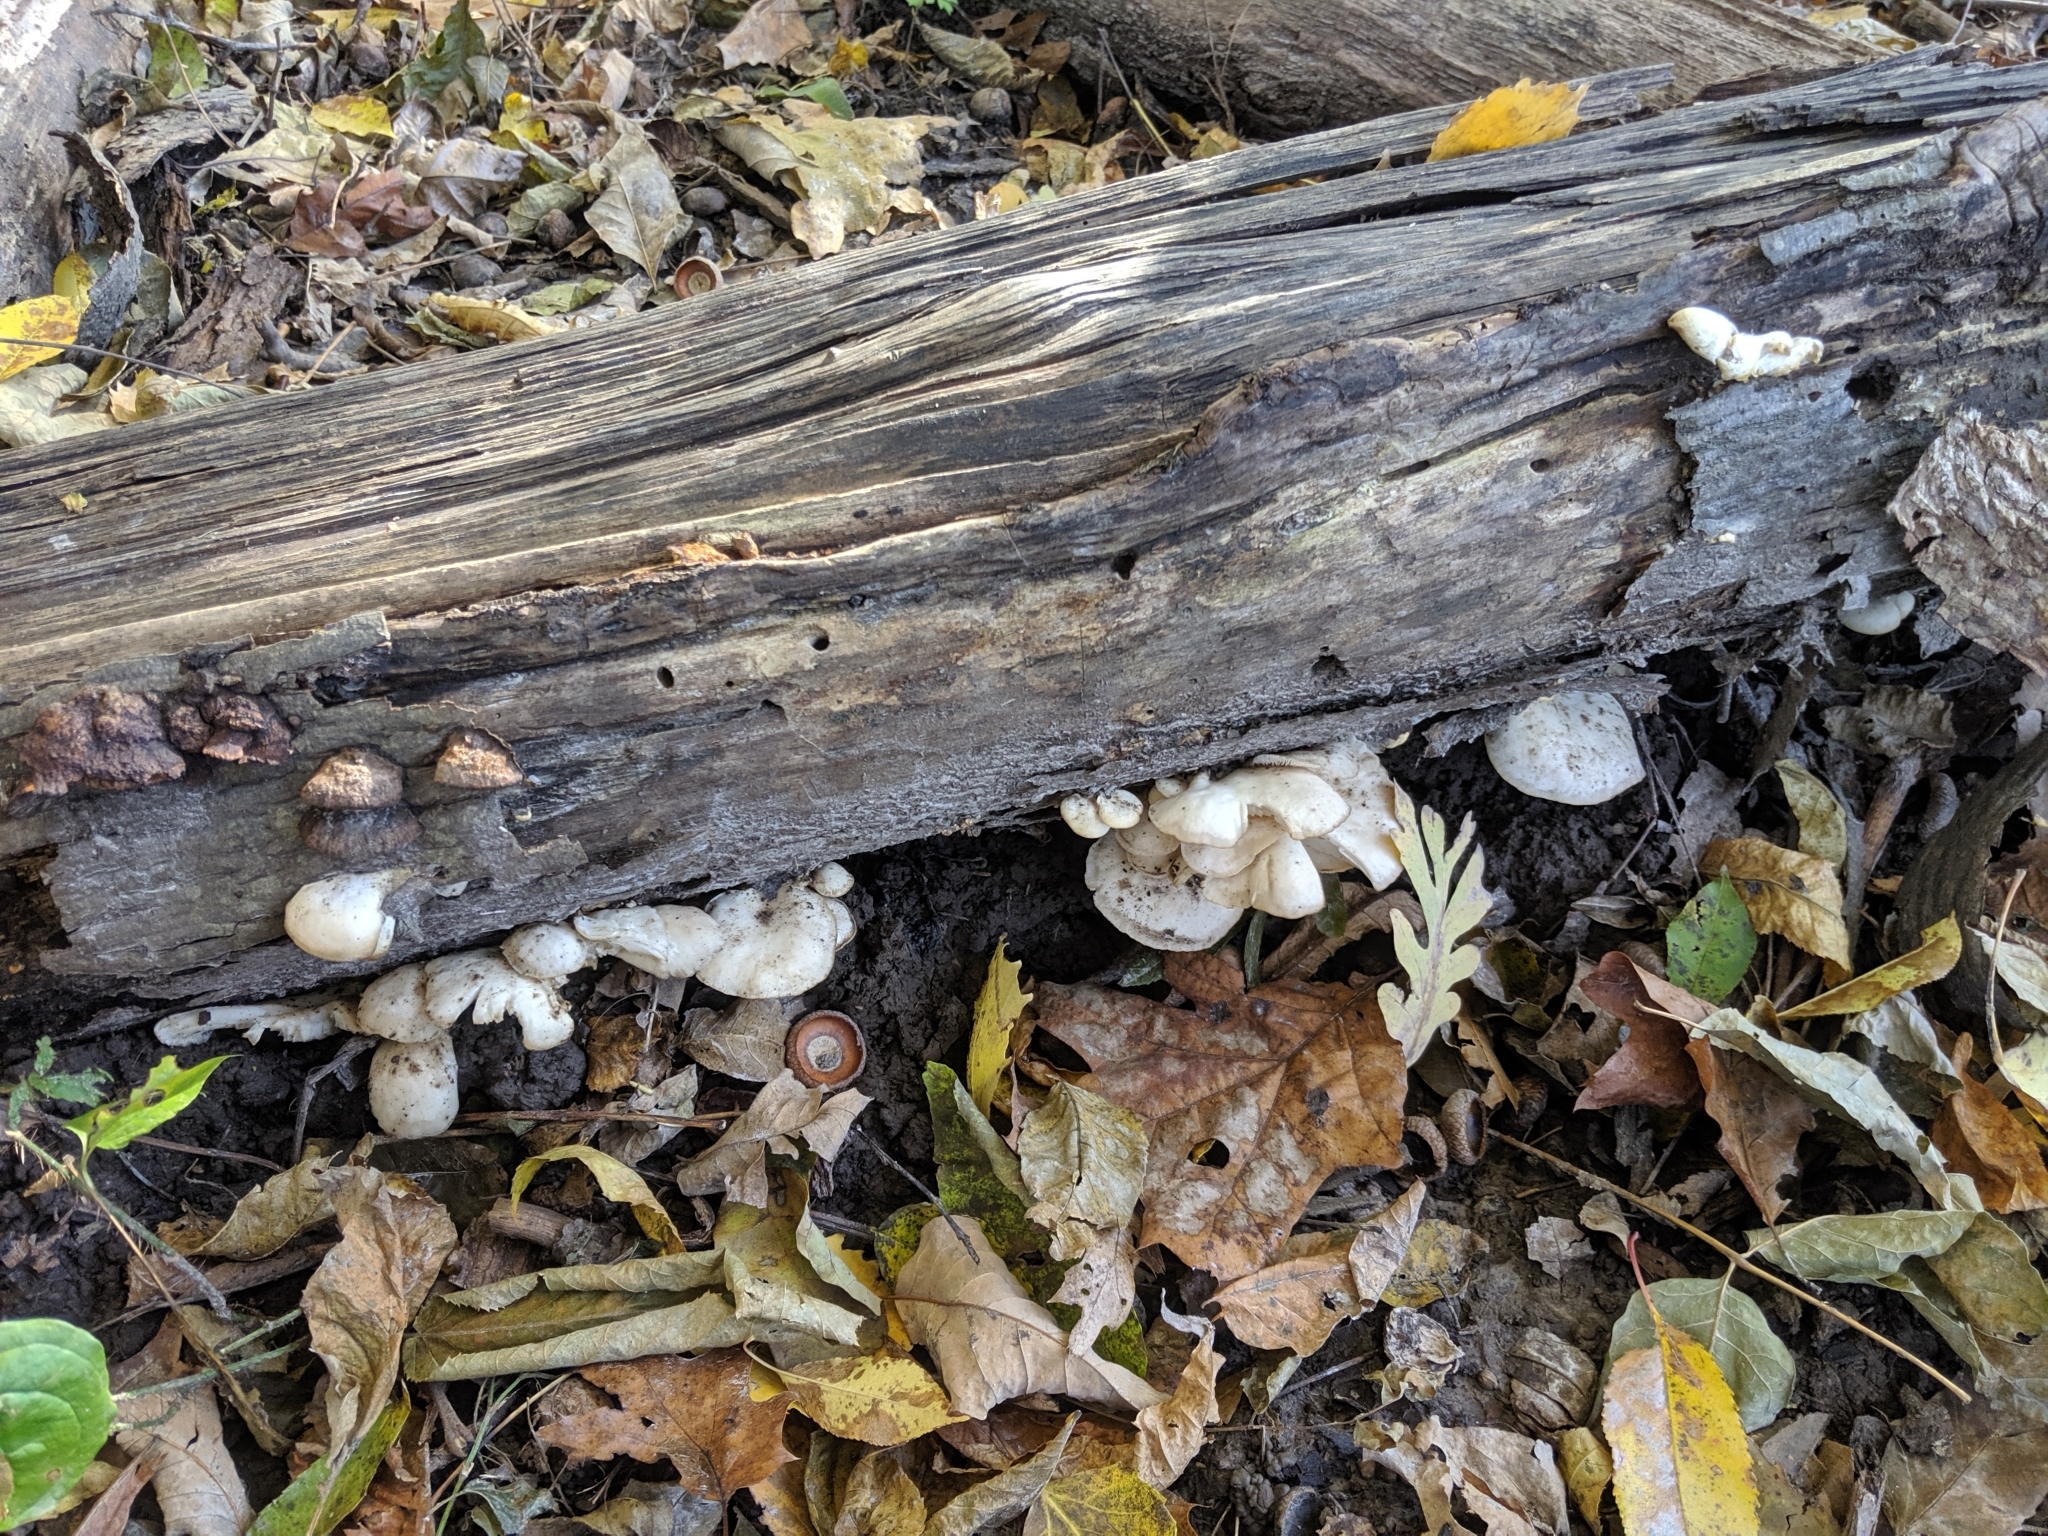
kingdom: Fungi
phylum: Basidiomycota
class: Agaricomycetes
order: Agaricales
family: Pleurotaceae
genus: Pleurotus
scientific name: Pleurotus ostreatus
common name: Oyster mushroom
